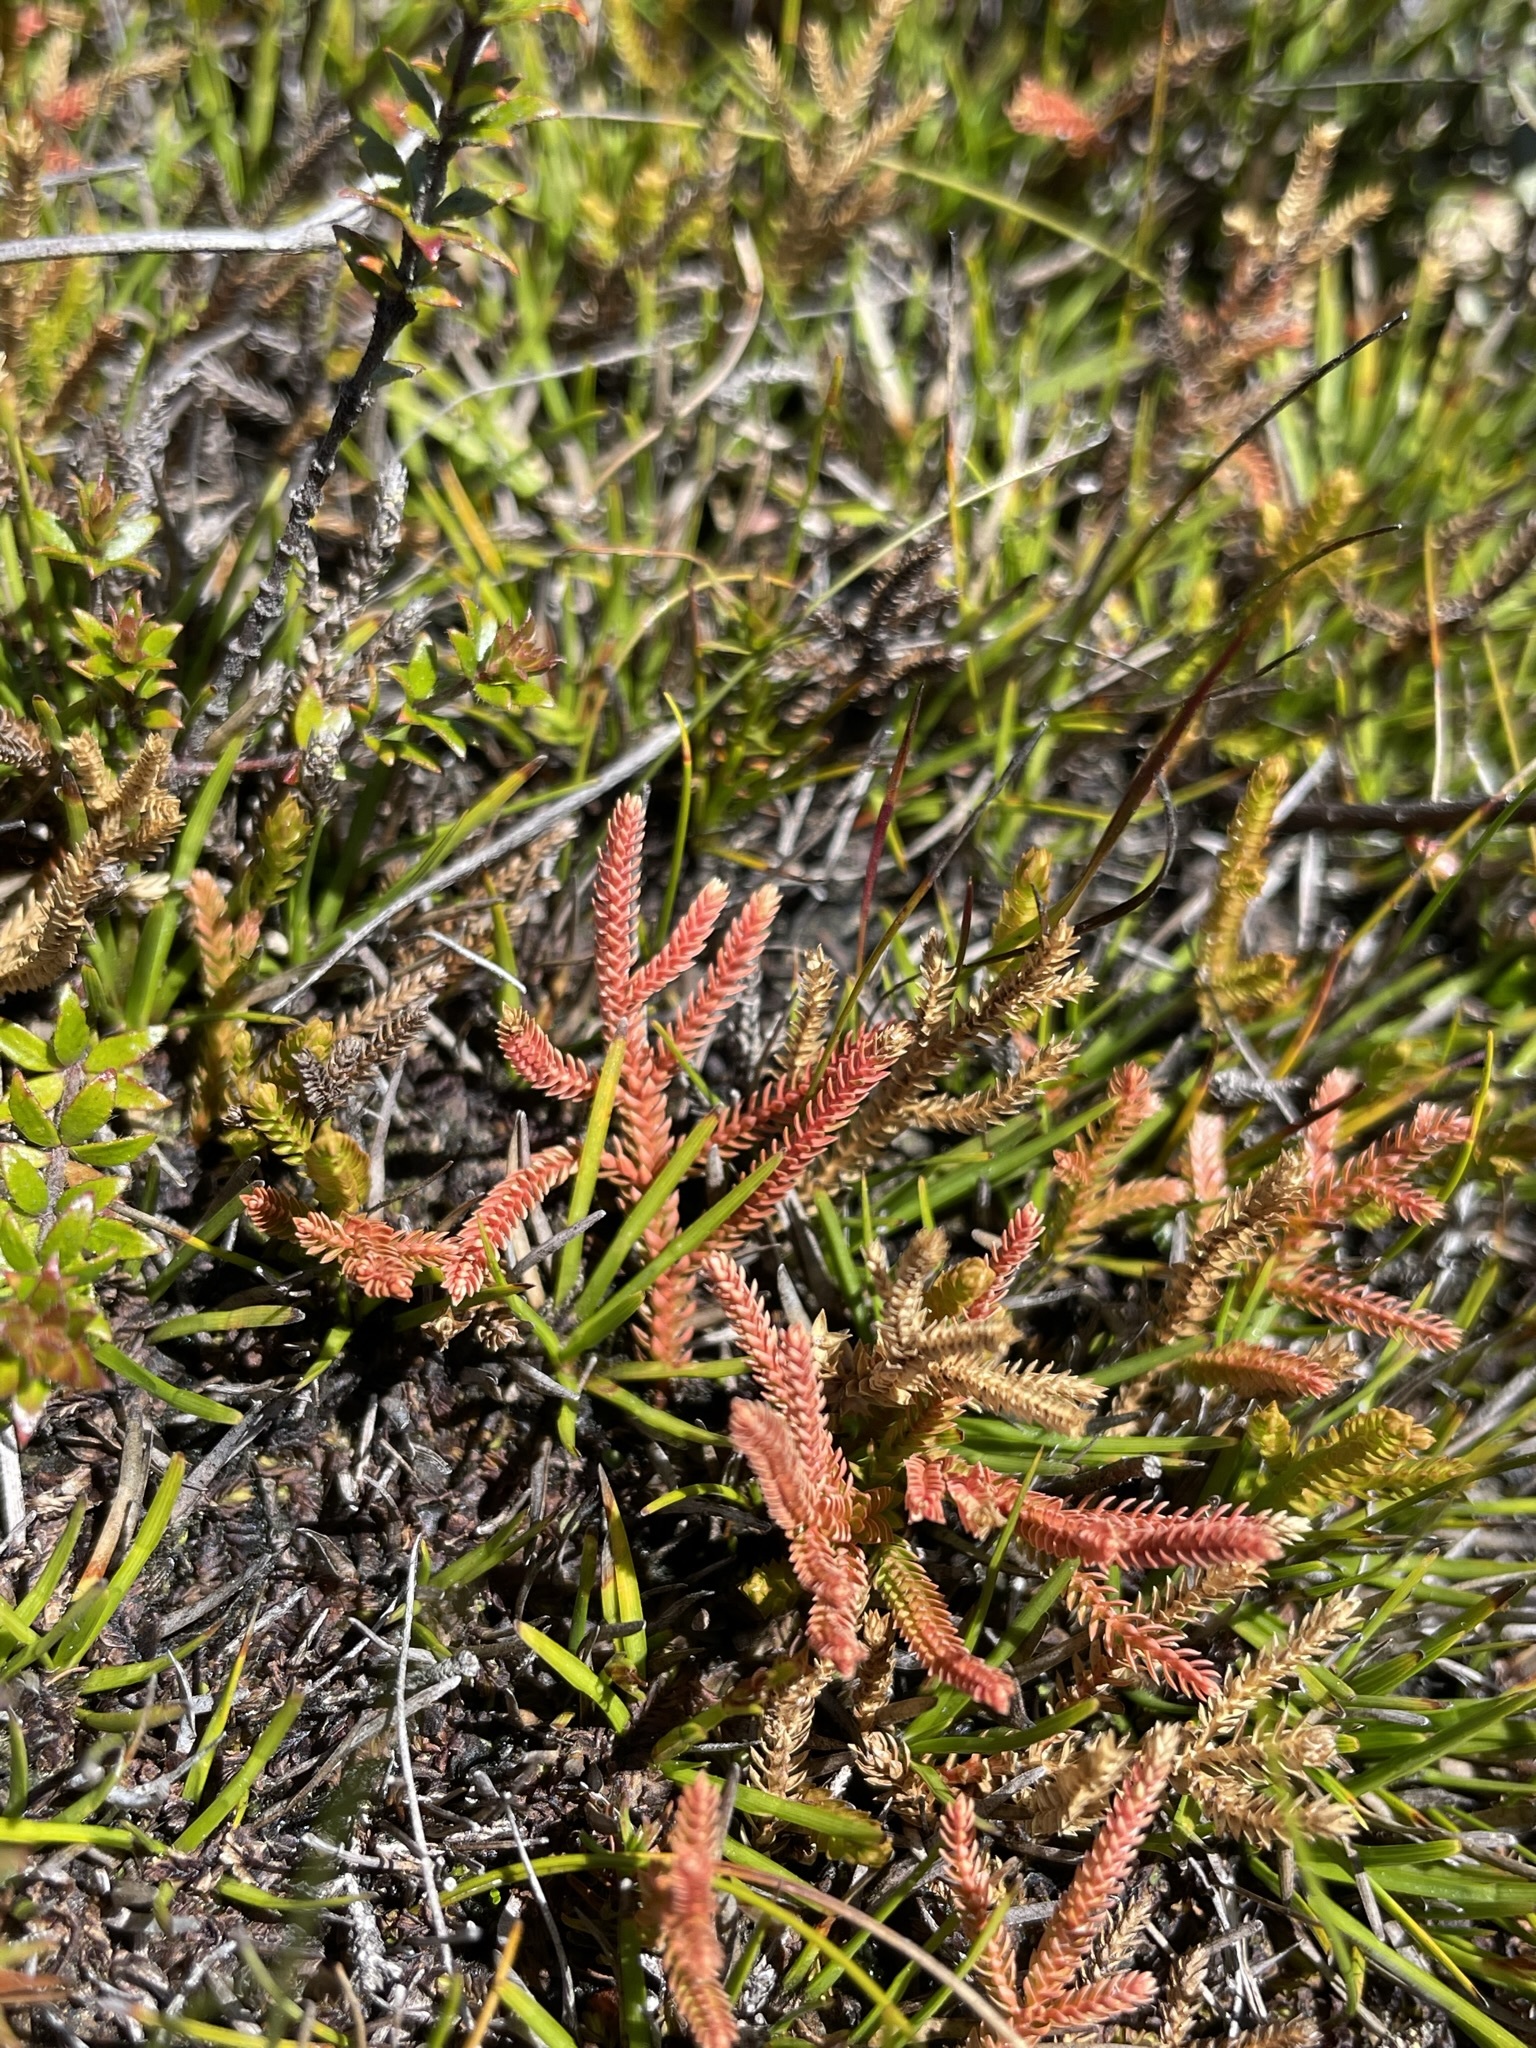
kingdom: Plantae
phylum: Tracheophyta
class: Lycopodiopsida
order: Selaginellales
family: Selaginellaceae
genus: Selaginella
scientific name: Selaginella uliginosa
